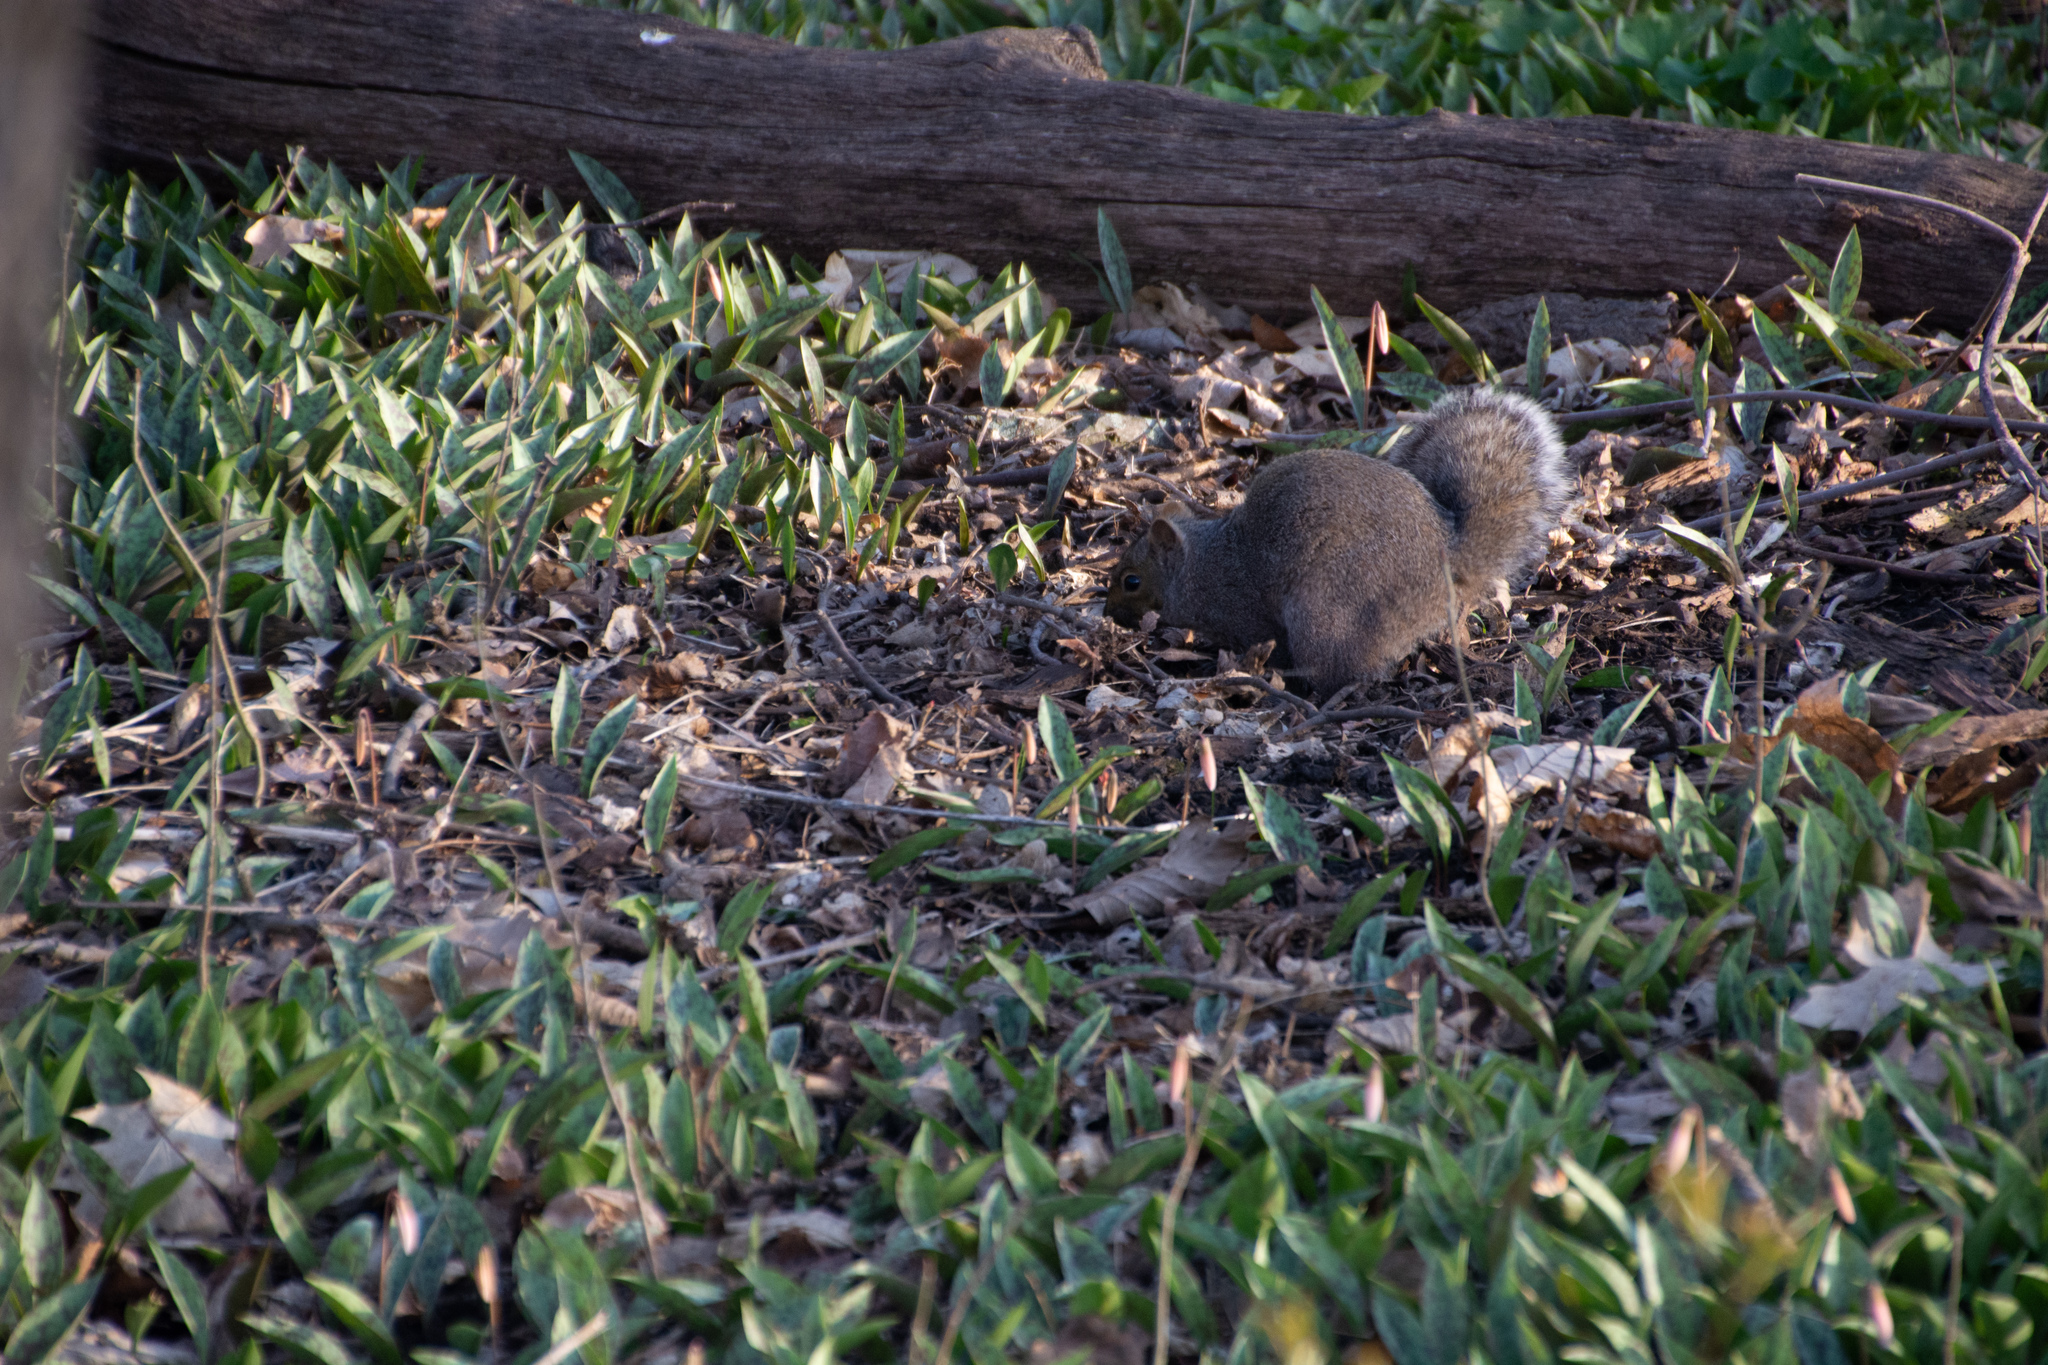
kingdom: Animalia
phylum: Chordata
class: Mammalia
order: Rodentia
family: Sciuridae
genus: Sciurus
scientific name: Sciurus carolinensis
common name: Eastern gray squirrel
